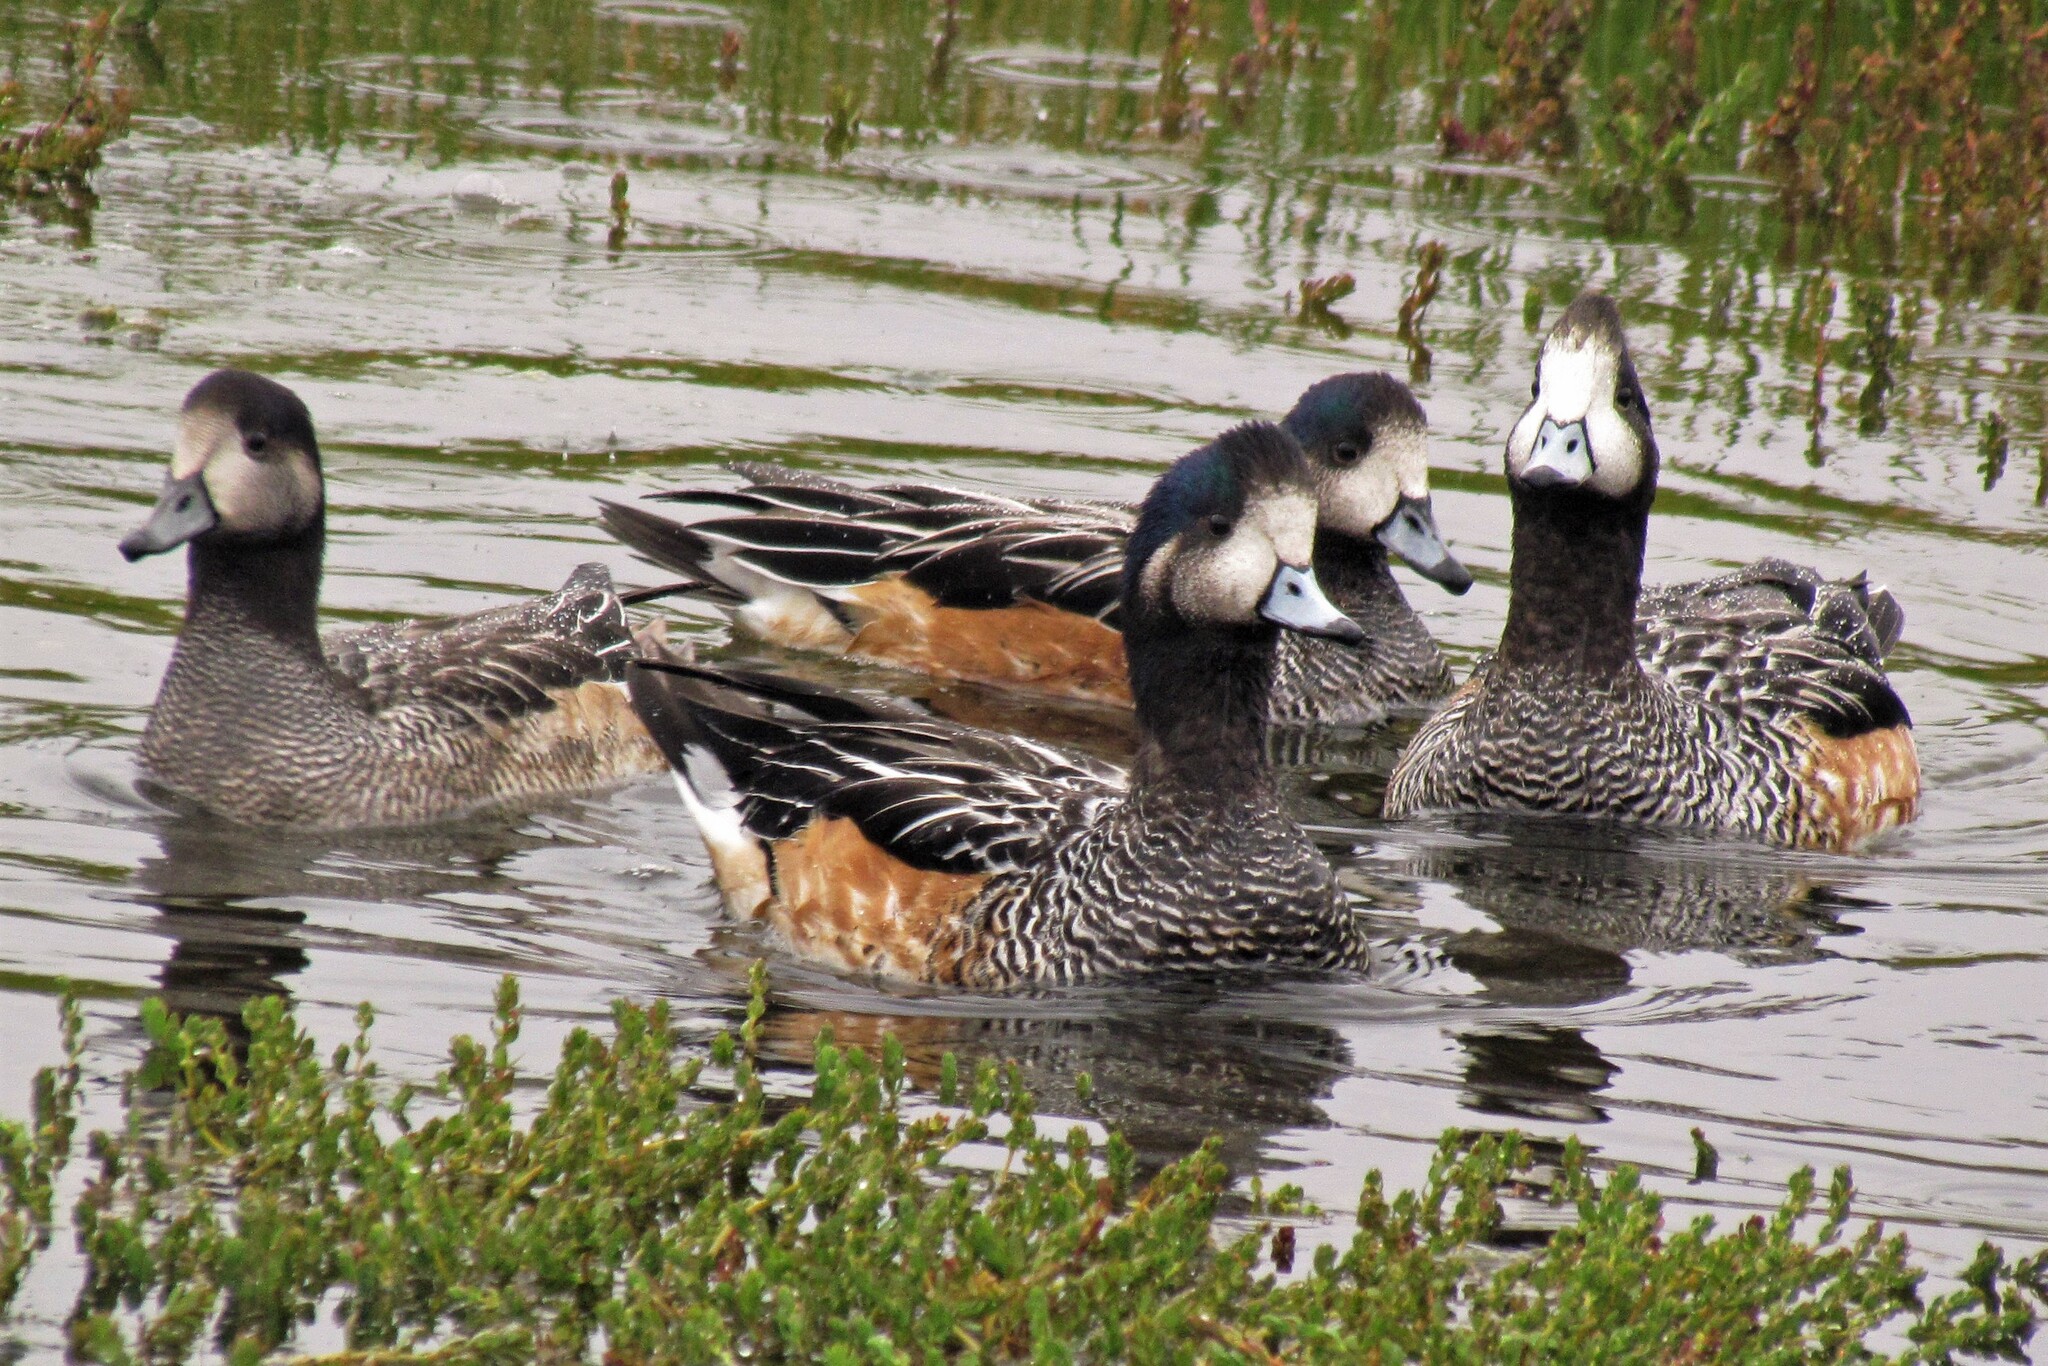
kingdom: Animalia
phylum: Chordata
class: Aves
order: Anseriformes
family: Anatidae
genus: Mareca
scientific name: Mareca sibilatrix
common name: Chiloe wigeon
